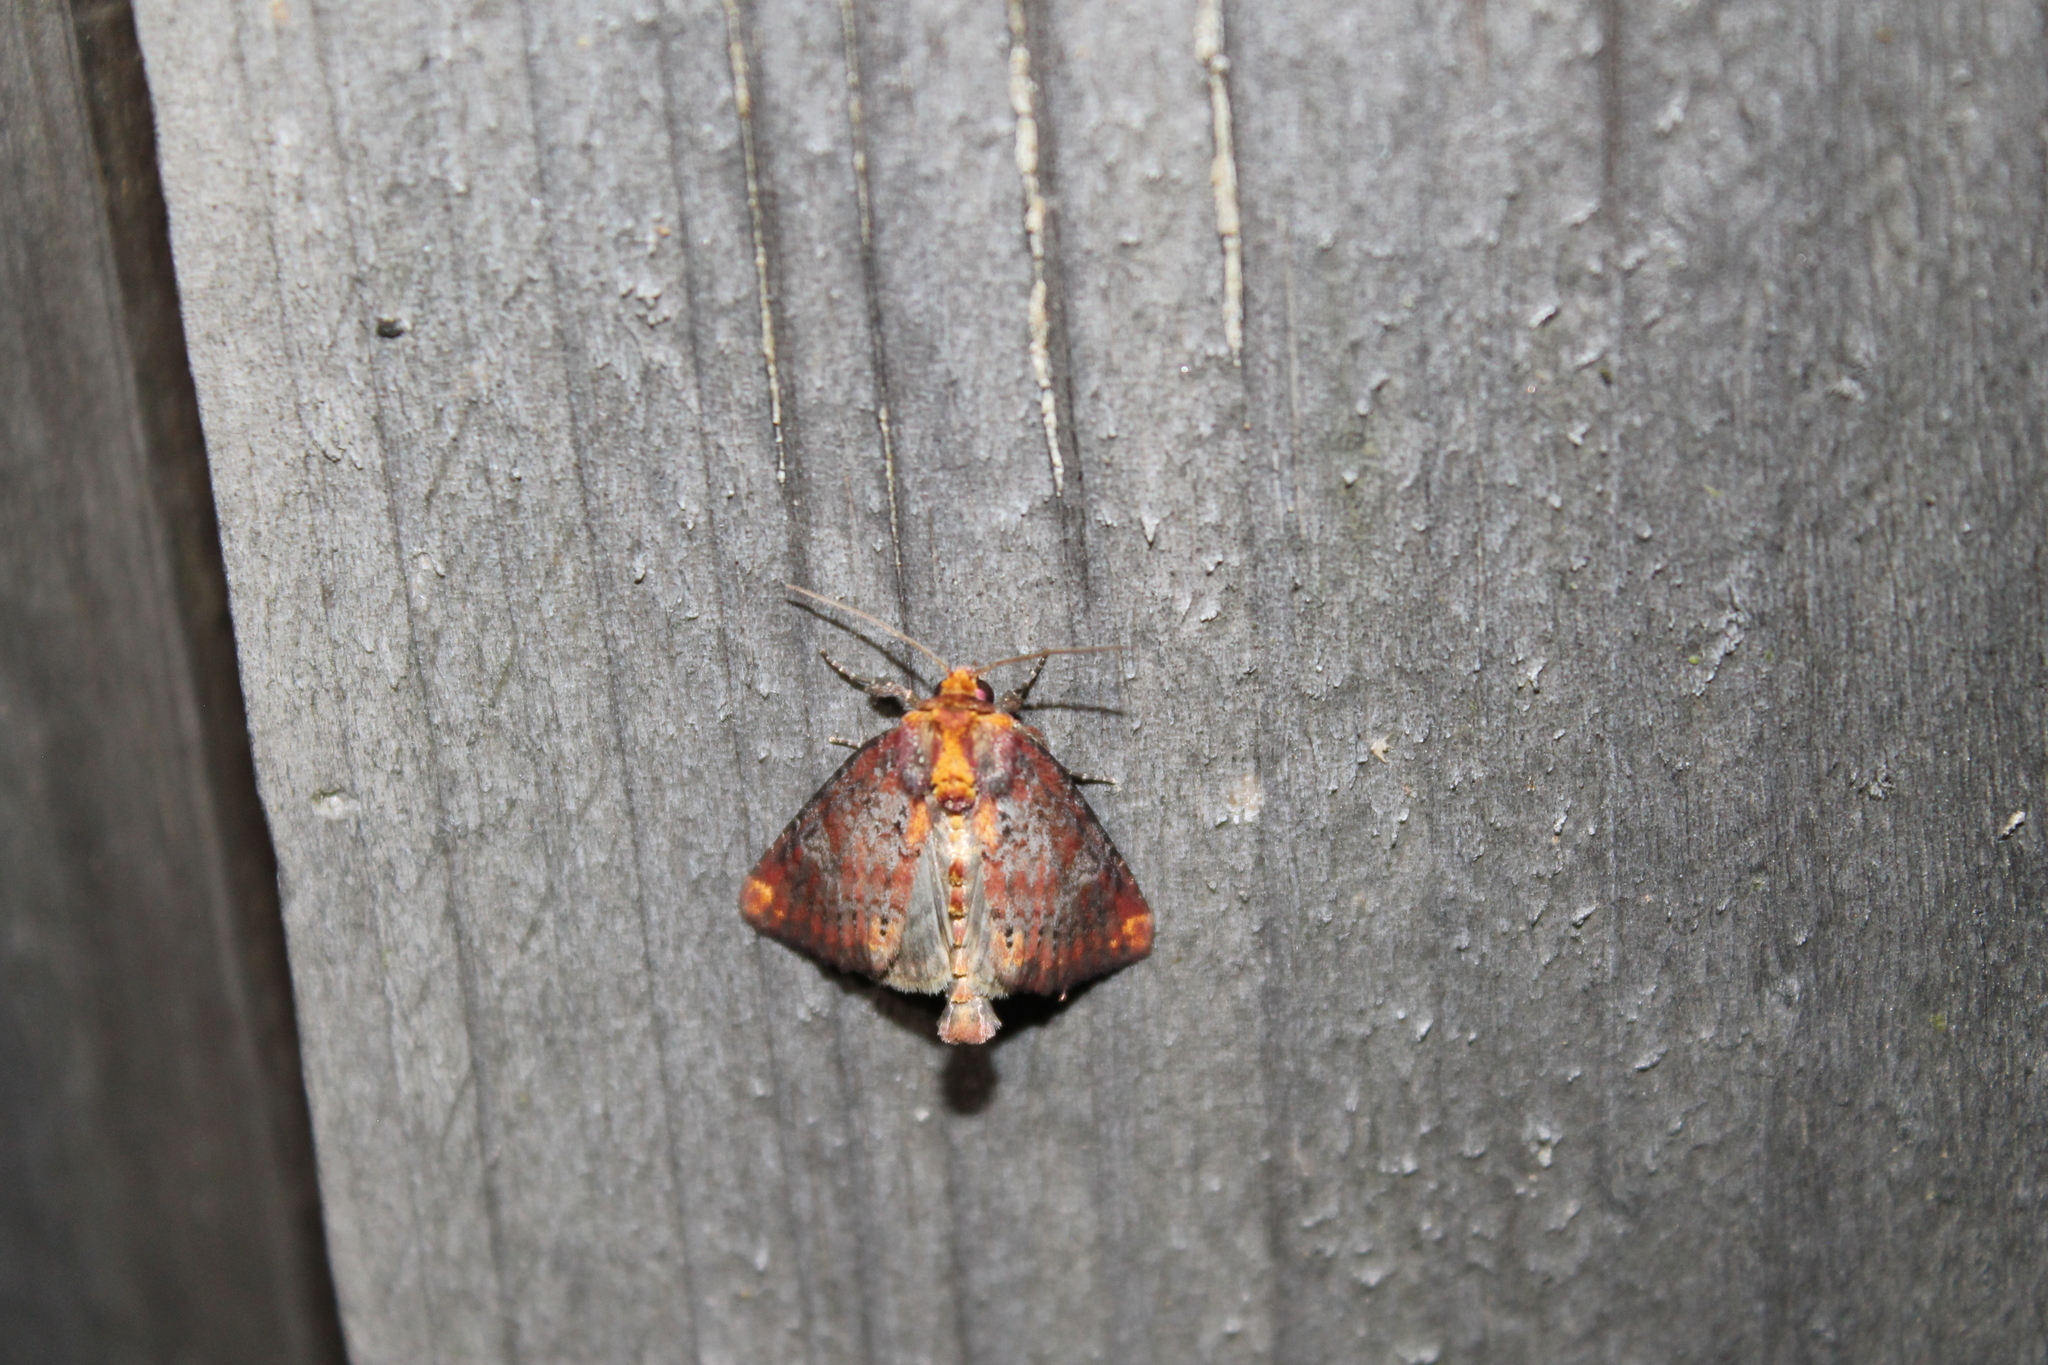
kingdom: Animalia
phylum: Arthropoda
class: Insecta
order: Lepidoptera
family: Noctuidae
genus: Achatodes
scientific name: Achatodes zeae
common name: Elder shoot borer
